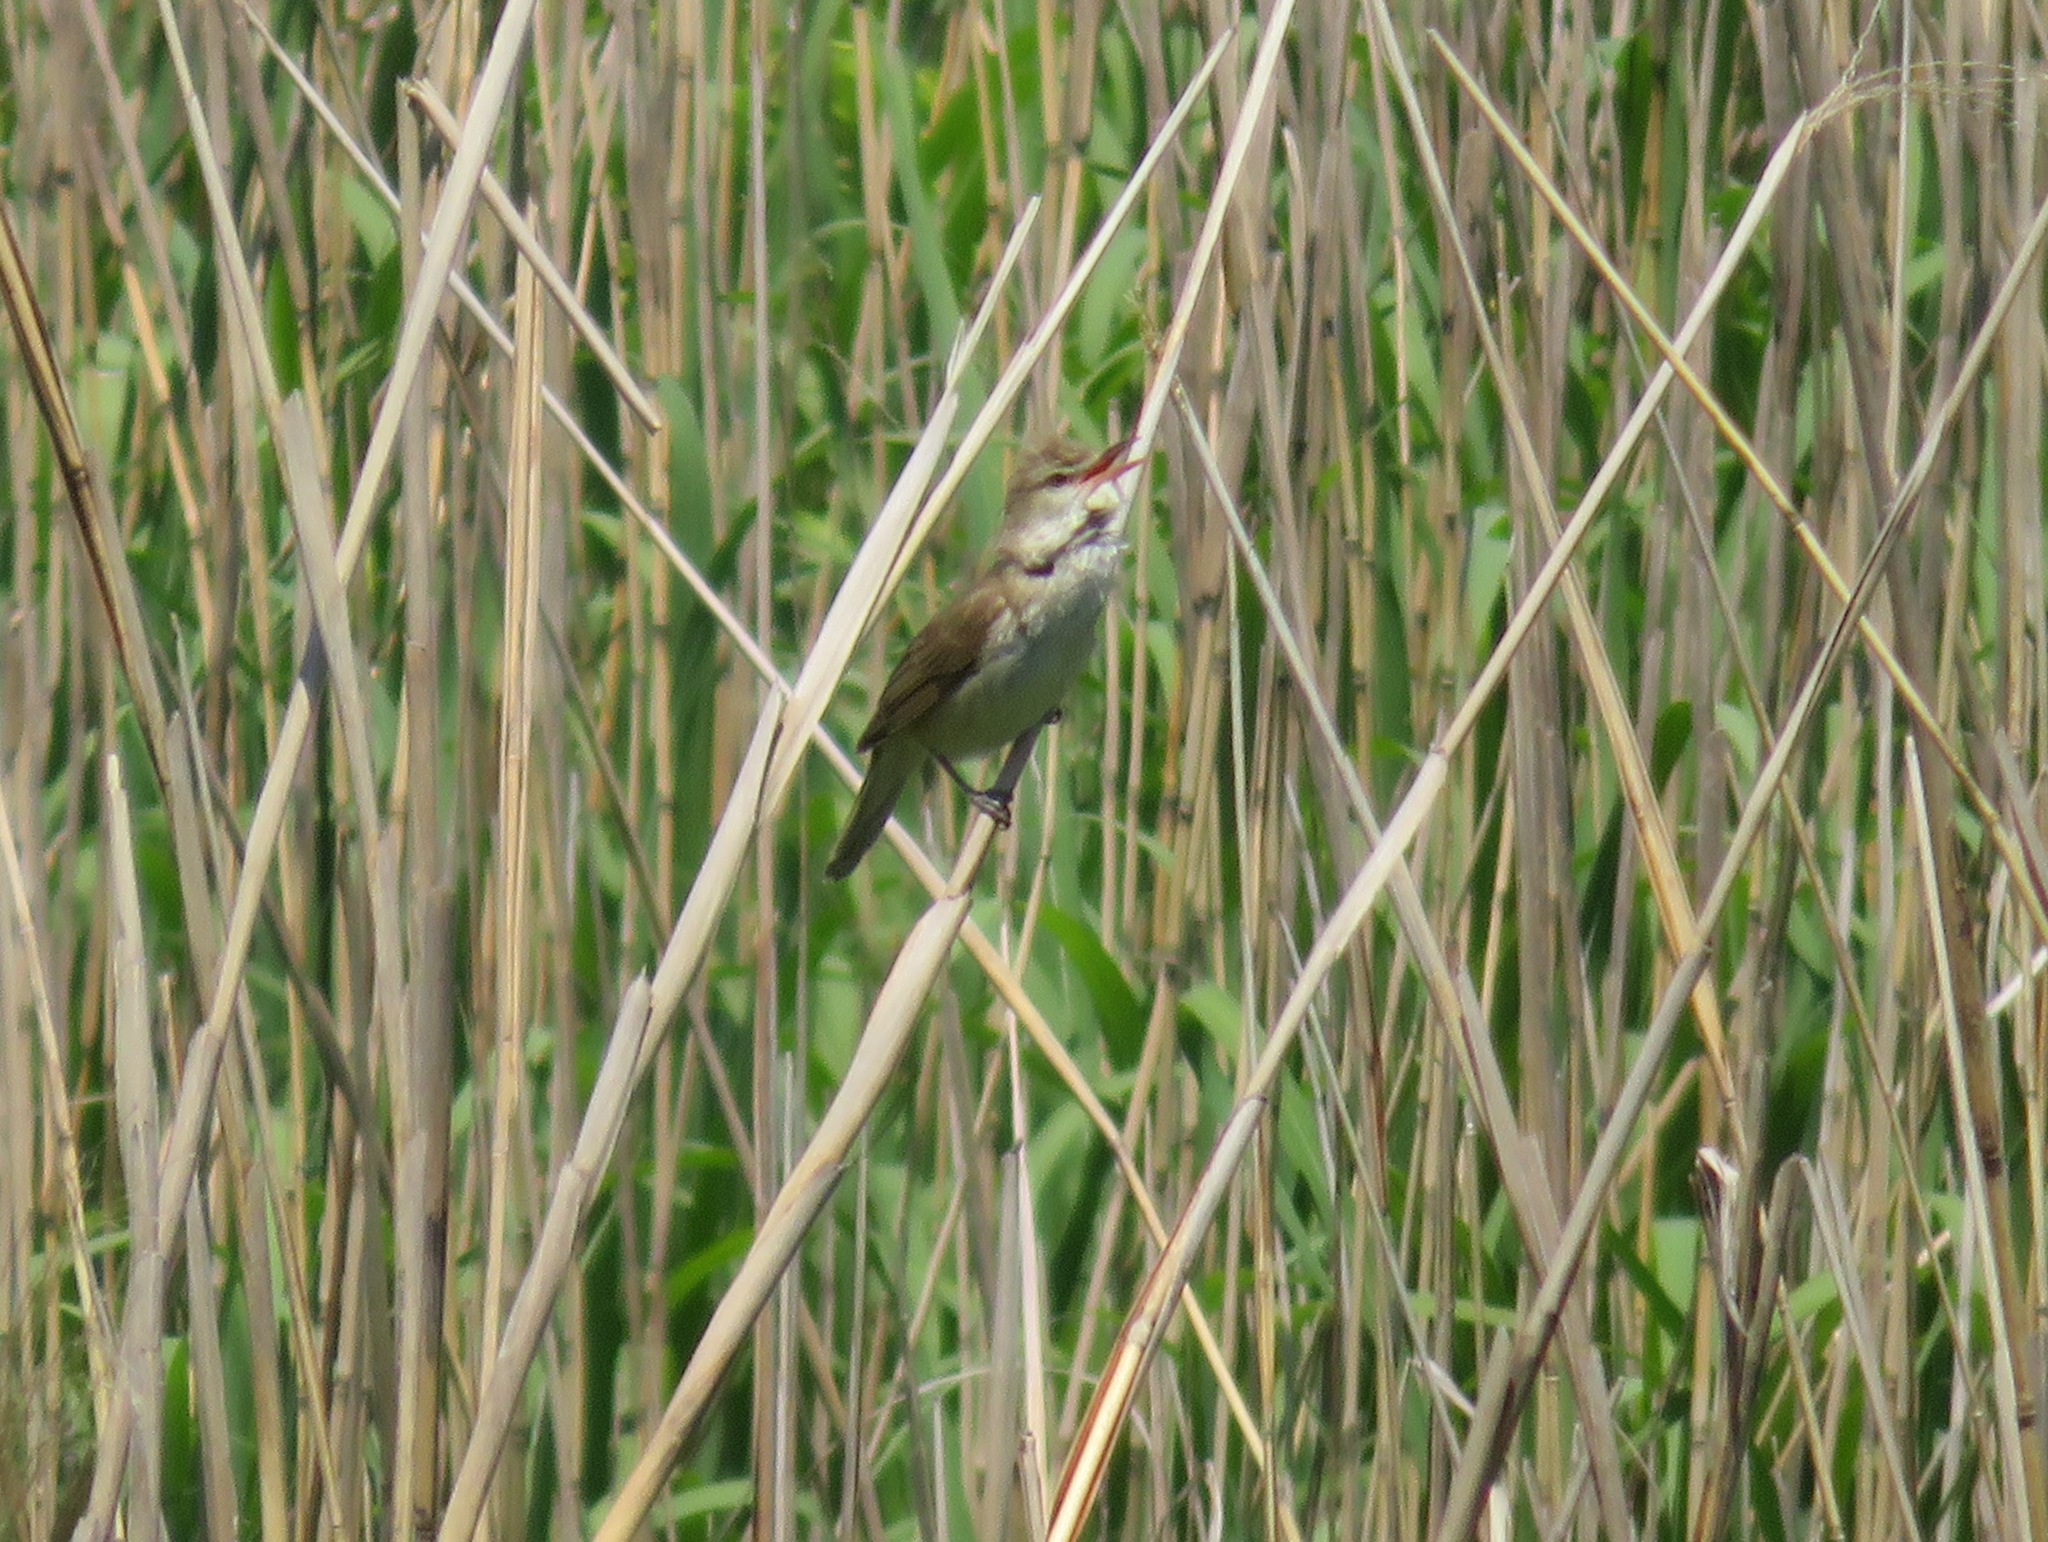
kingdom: Animalia
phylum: Chordata
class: Aves
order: Passeriformes
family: Acrocephalidae
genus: Acrocephalus
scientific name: Acrocephalus orientalis
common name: Oriental reed warbler
